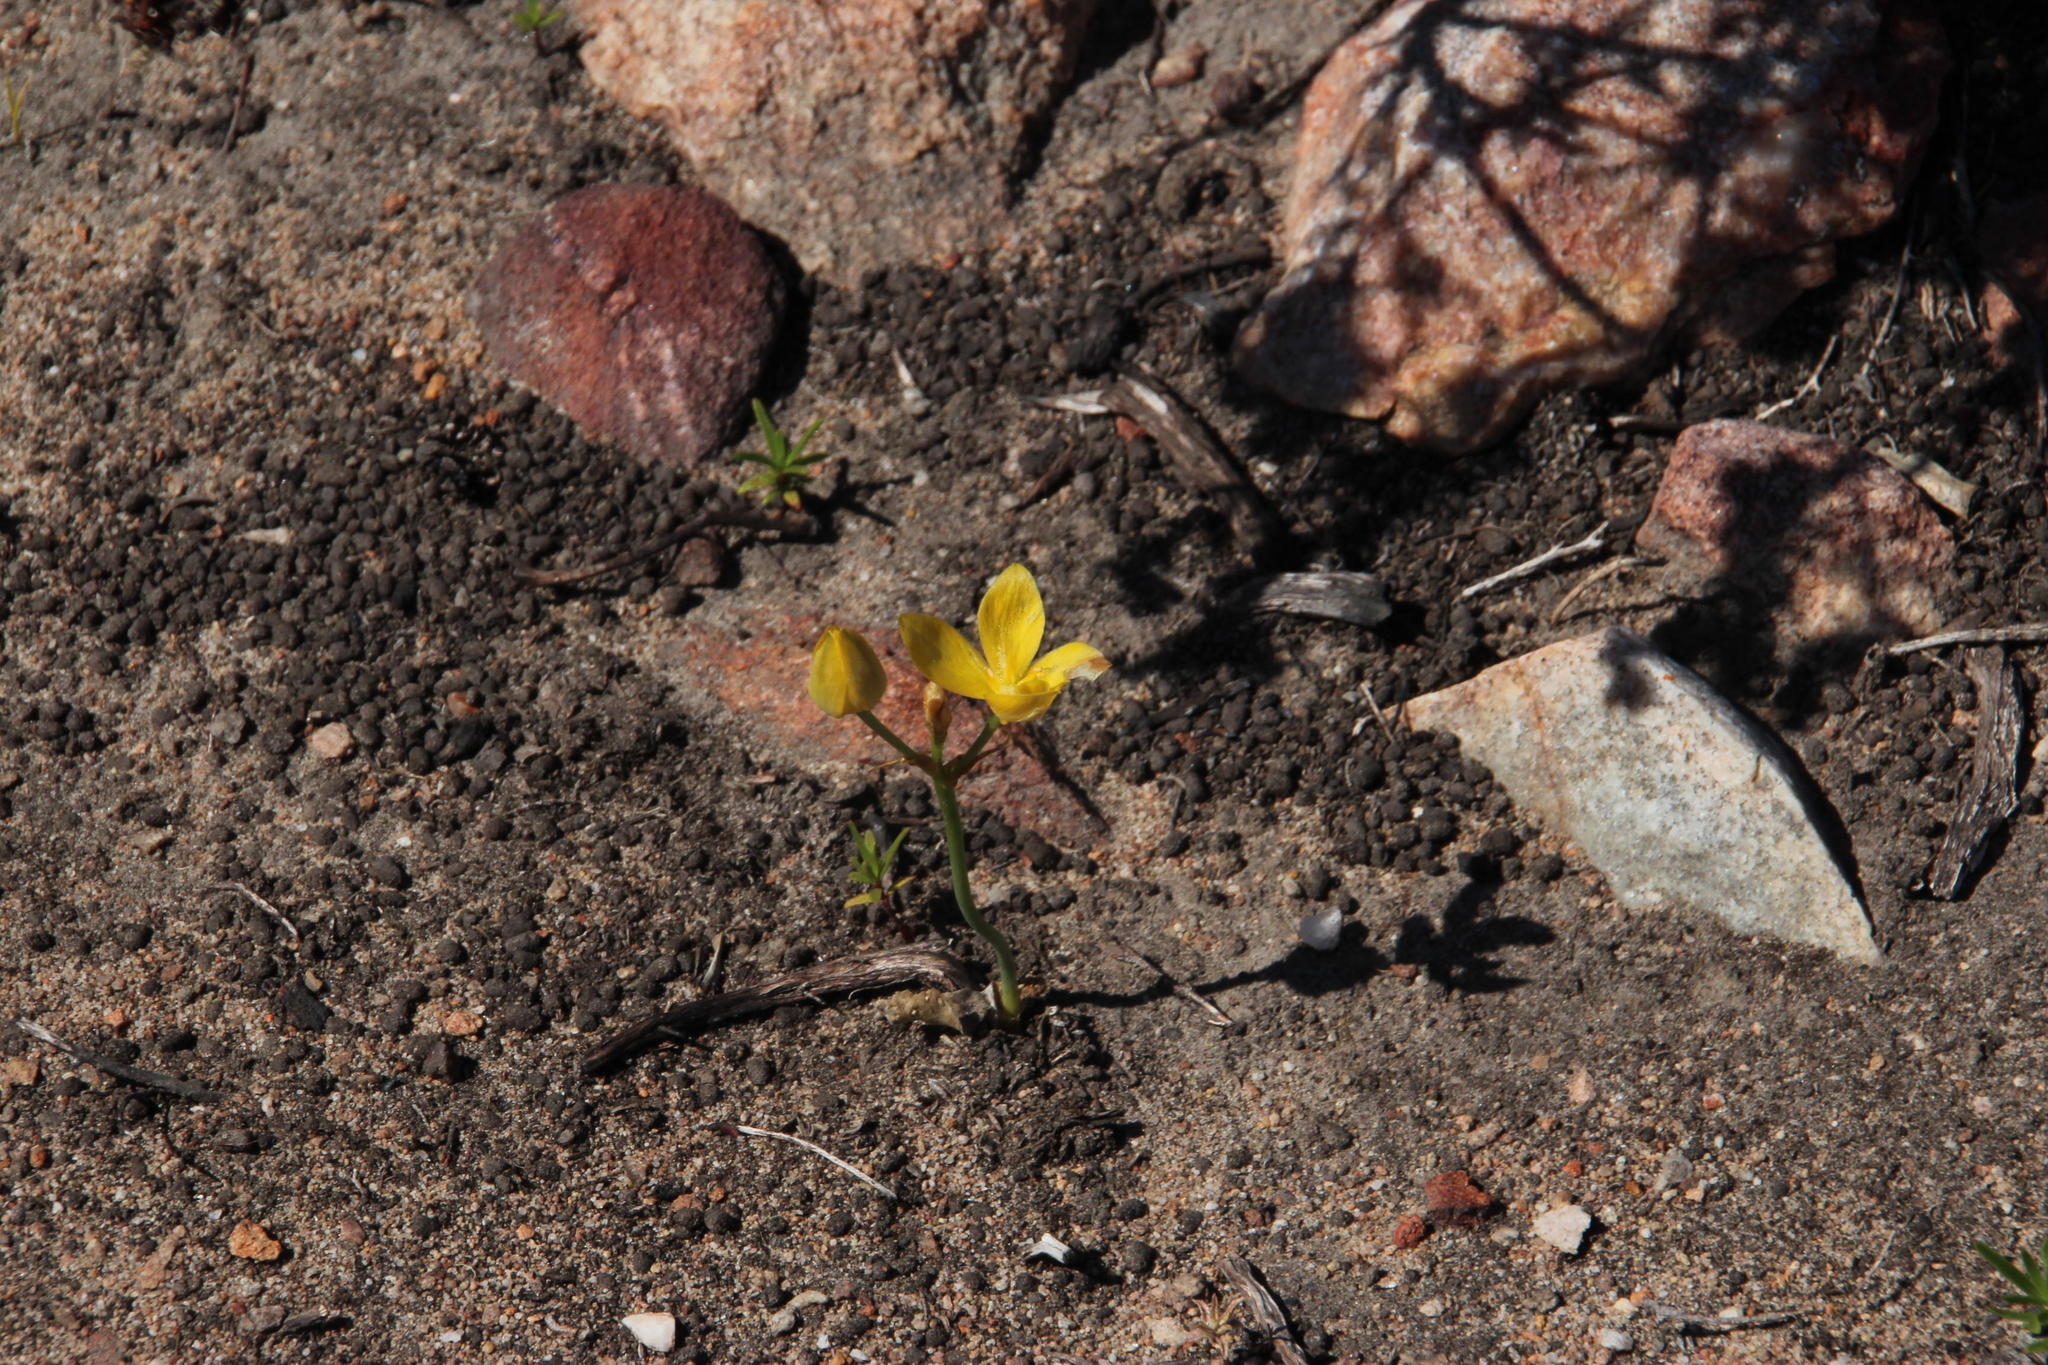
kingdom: Plantae
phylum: Tracheophyta
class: Liliopsida
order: Asparagales
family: Asparagaceae
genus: Ornithogalum
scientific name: Ornithogalum dubium
